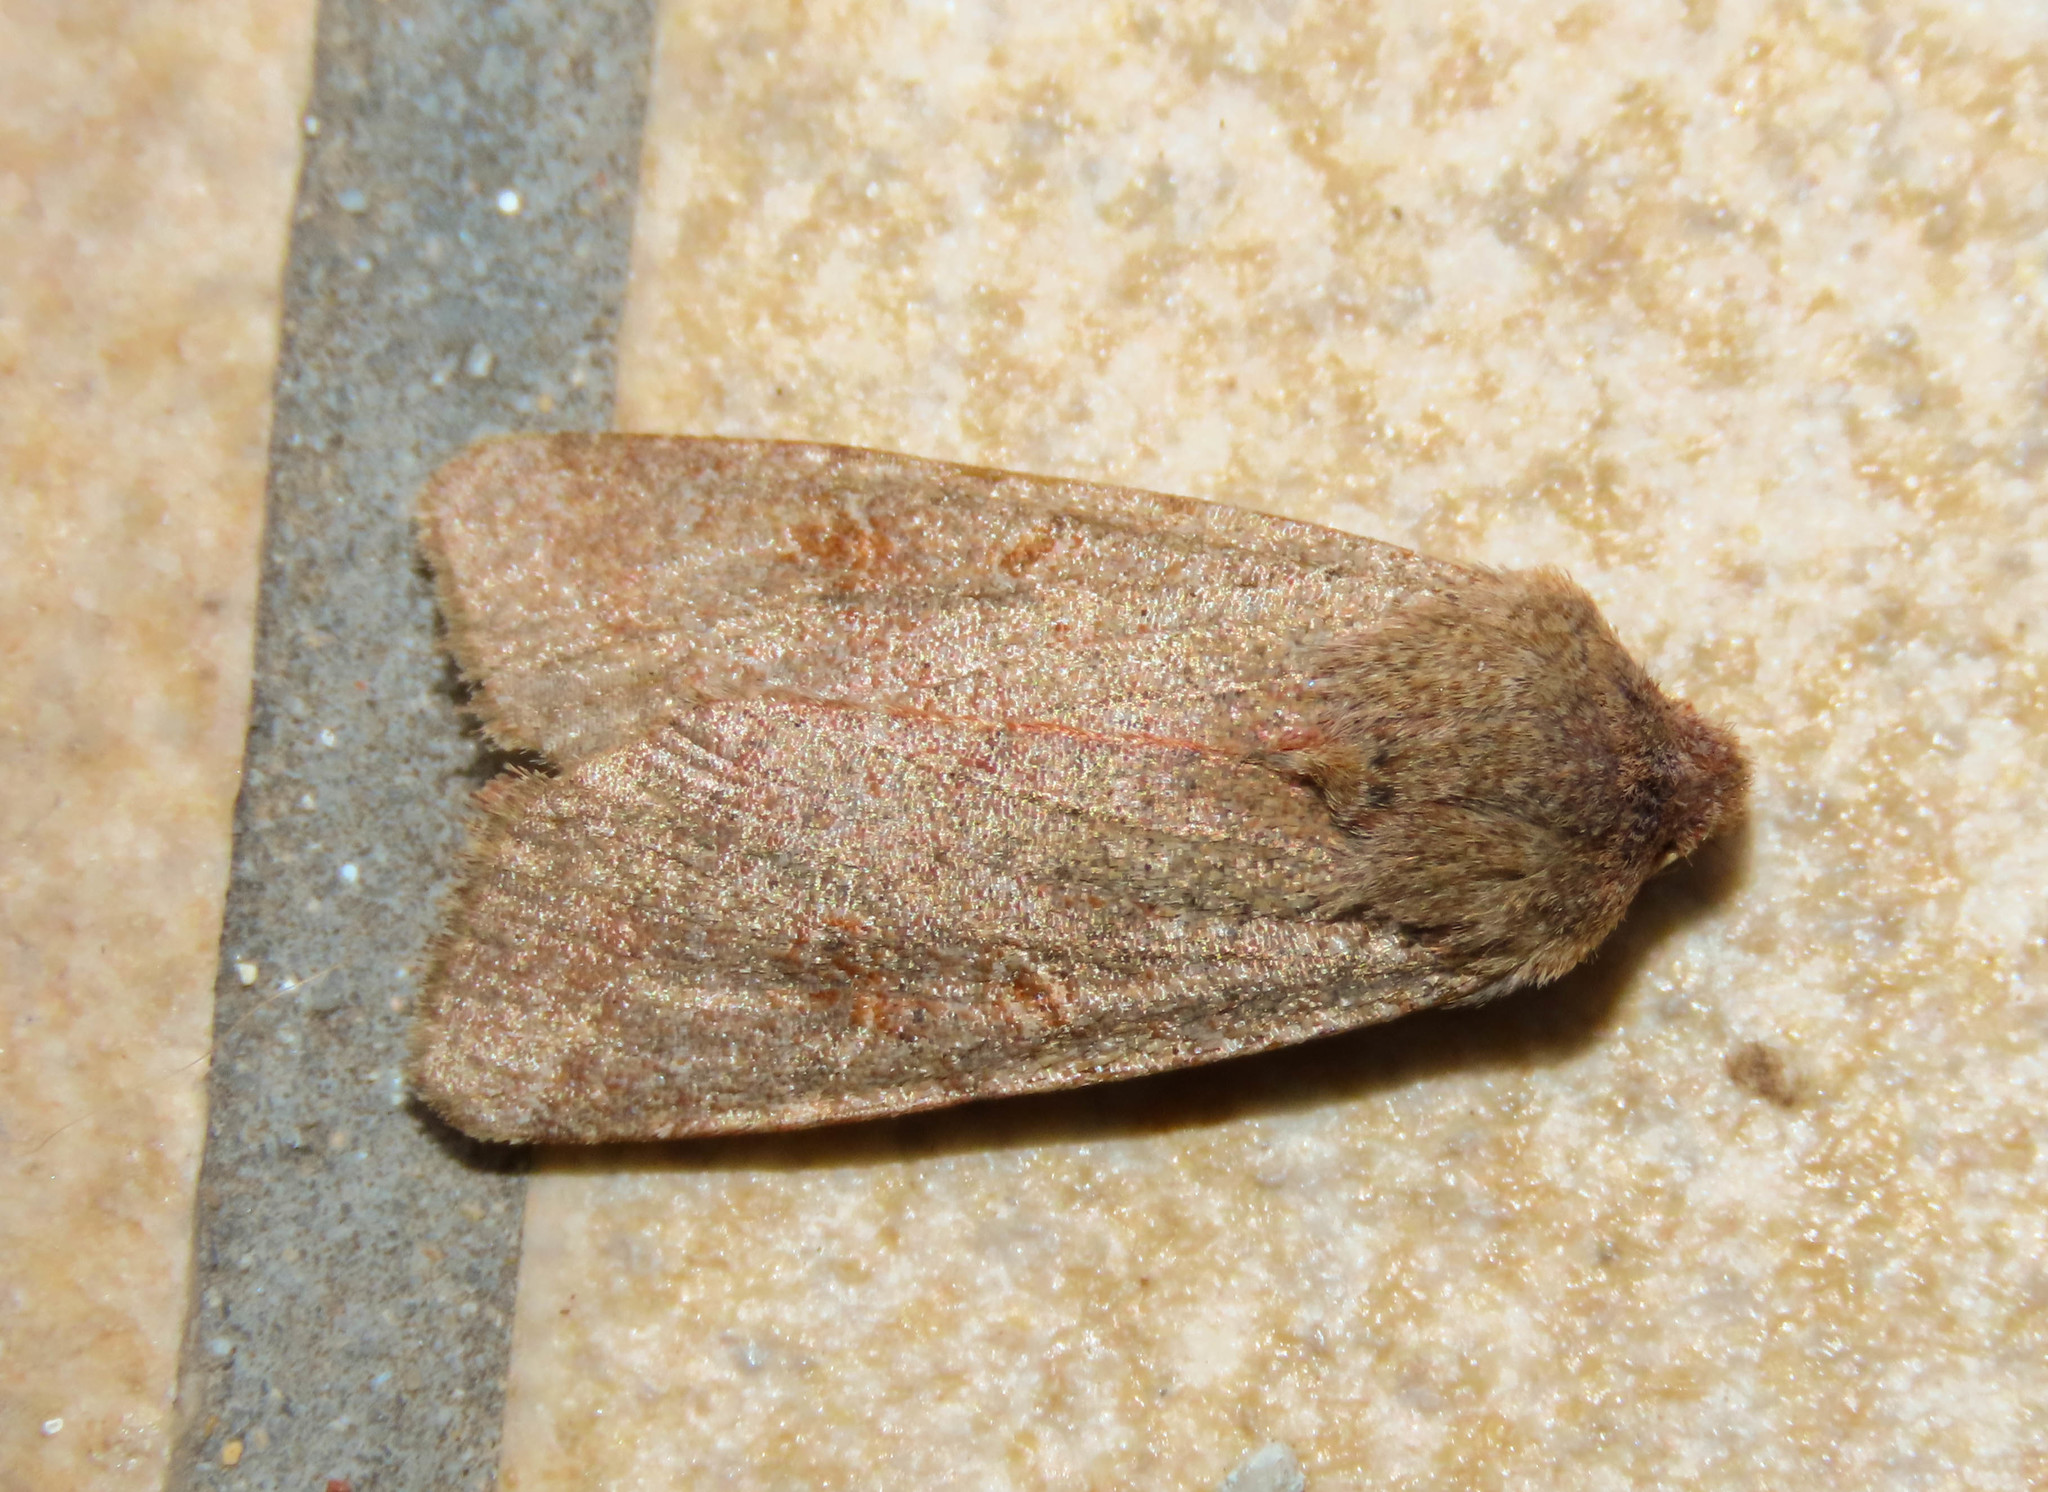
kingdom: Animalia
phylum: Arthropoda
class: Insecta
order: Lepidoptera
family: Noctuidae
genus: Agrochola
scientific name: Agrochola lychnidis
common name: Beaded chestnut
